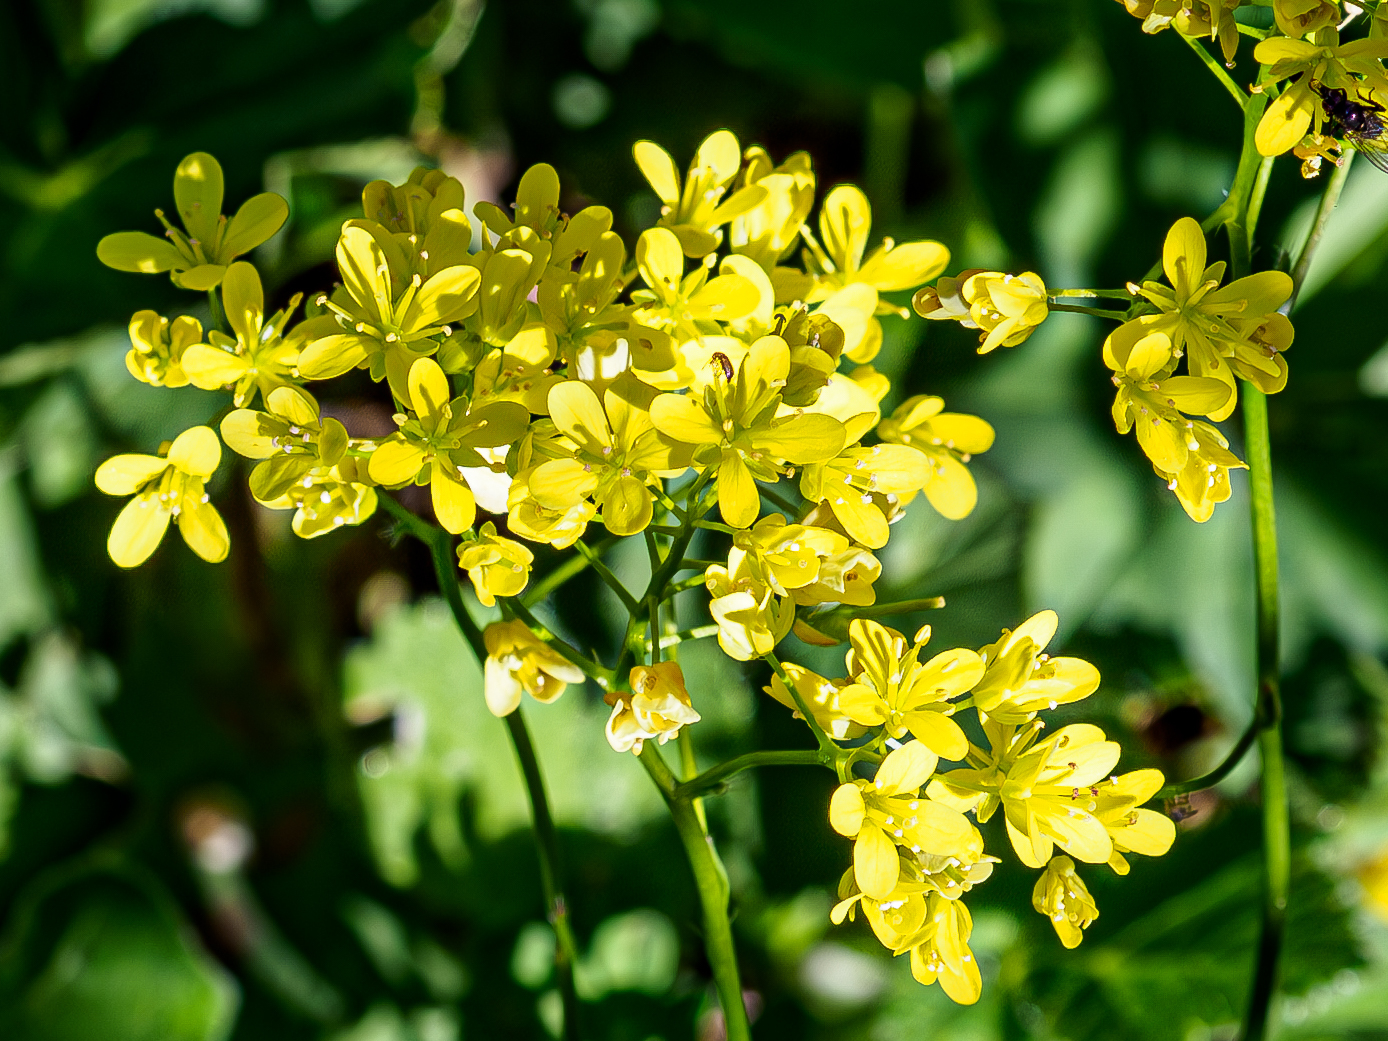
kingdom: Plantae
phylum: Tracheophyta
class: Magnoliopsida
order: Brassicales
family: Brassicaceae
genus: Biscutella
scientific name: Biscutella laevigata
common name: Buckler mustard
